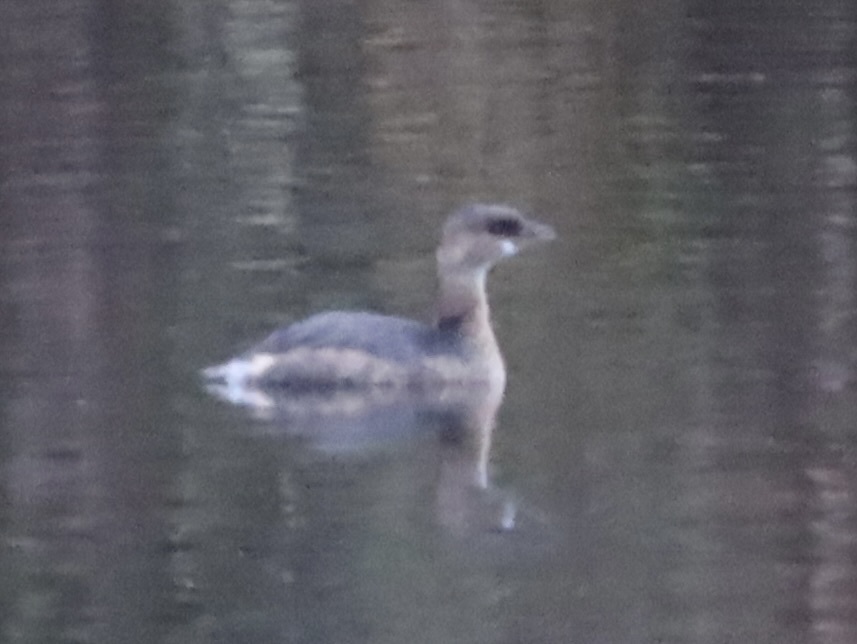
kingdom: Animalia
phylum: Chordata
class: Aves
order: Podicipediformes
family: Podicipedidae
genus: Podilymbus
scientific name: Podilymbus podiceps
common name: Pied-billed grebe
